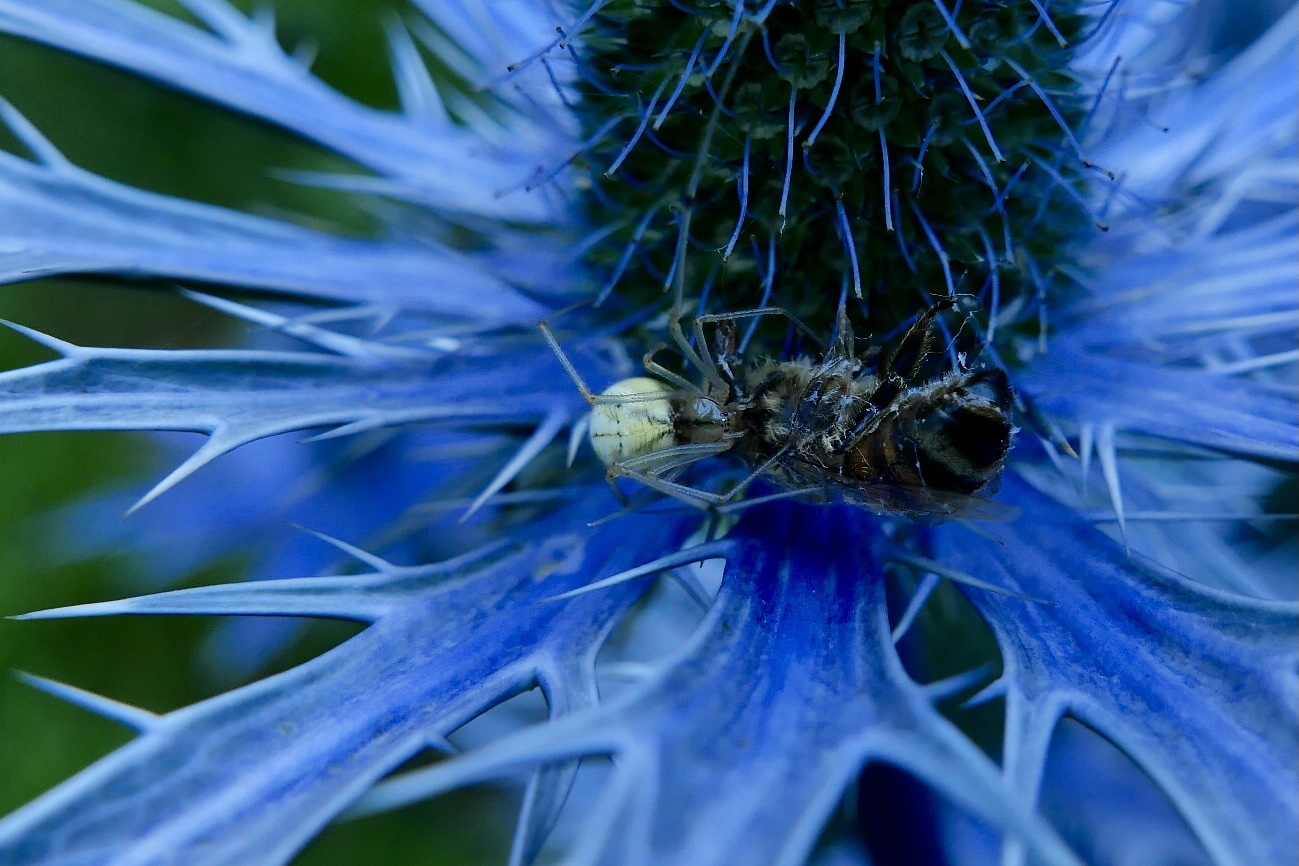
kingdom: Animalia
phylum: Arthropoda
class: Arachnida
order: Araneae
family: Theridiidae
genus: Enoplognatha
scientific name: Enoplognatha ovata
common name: Common candy-striped spider
